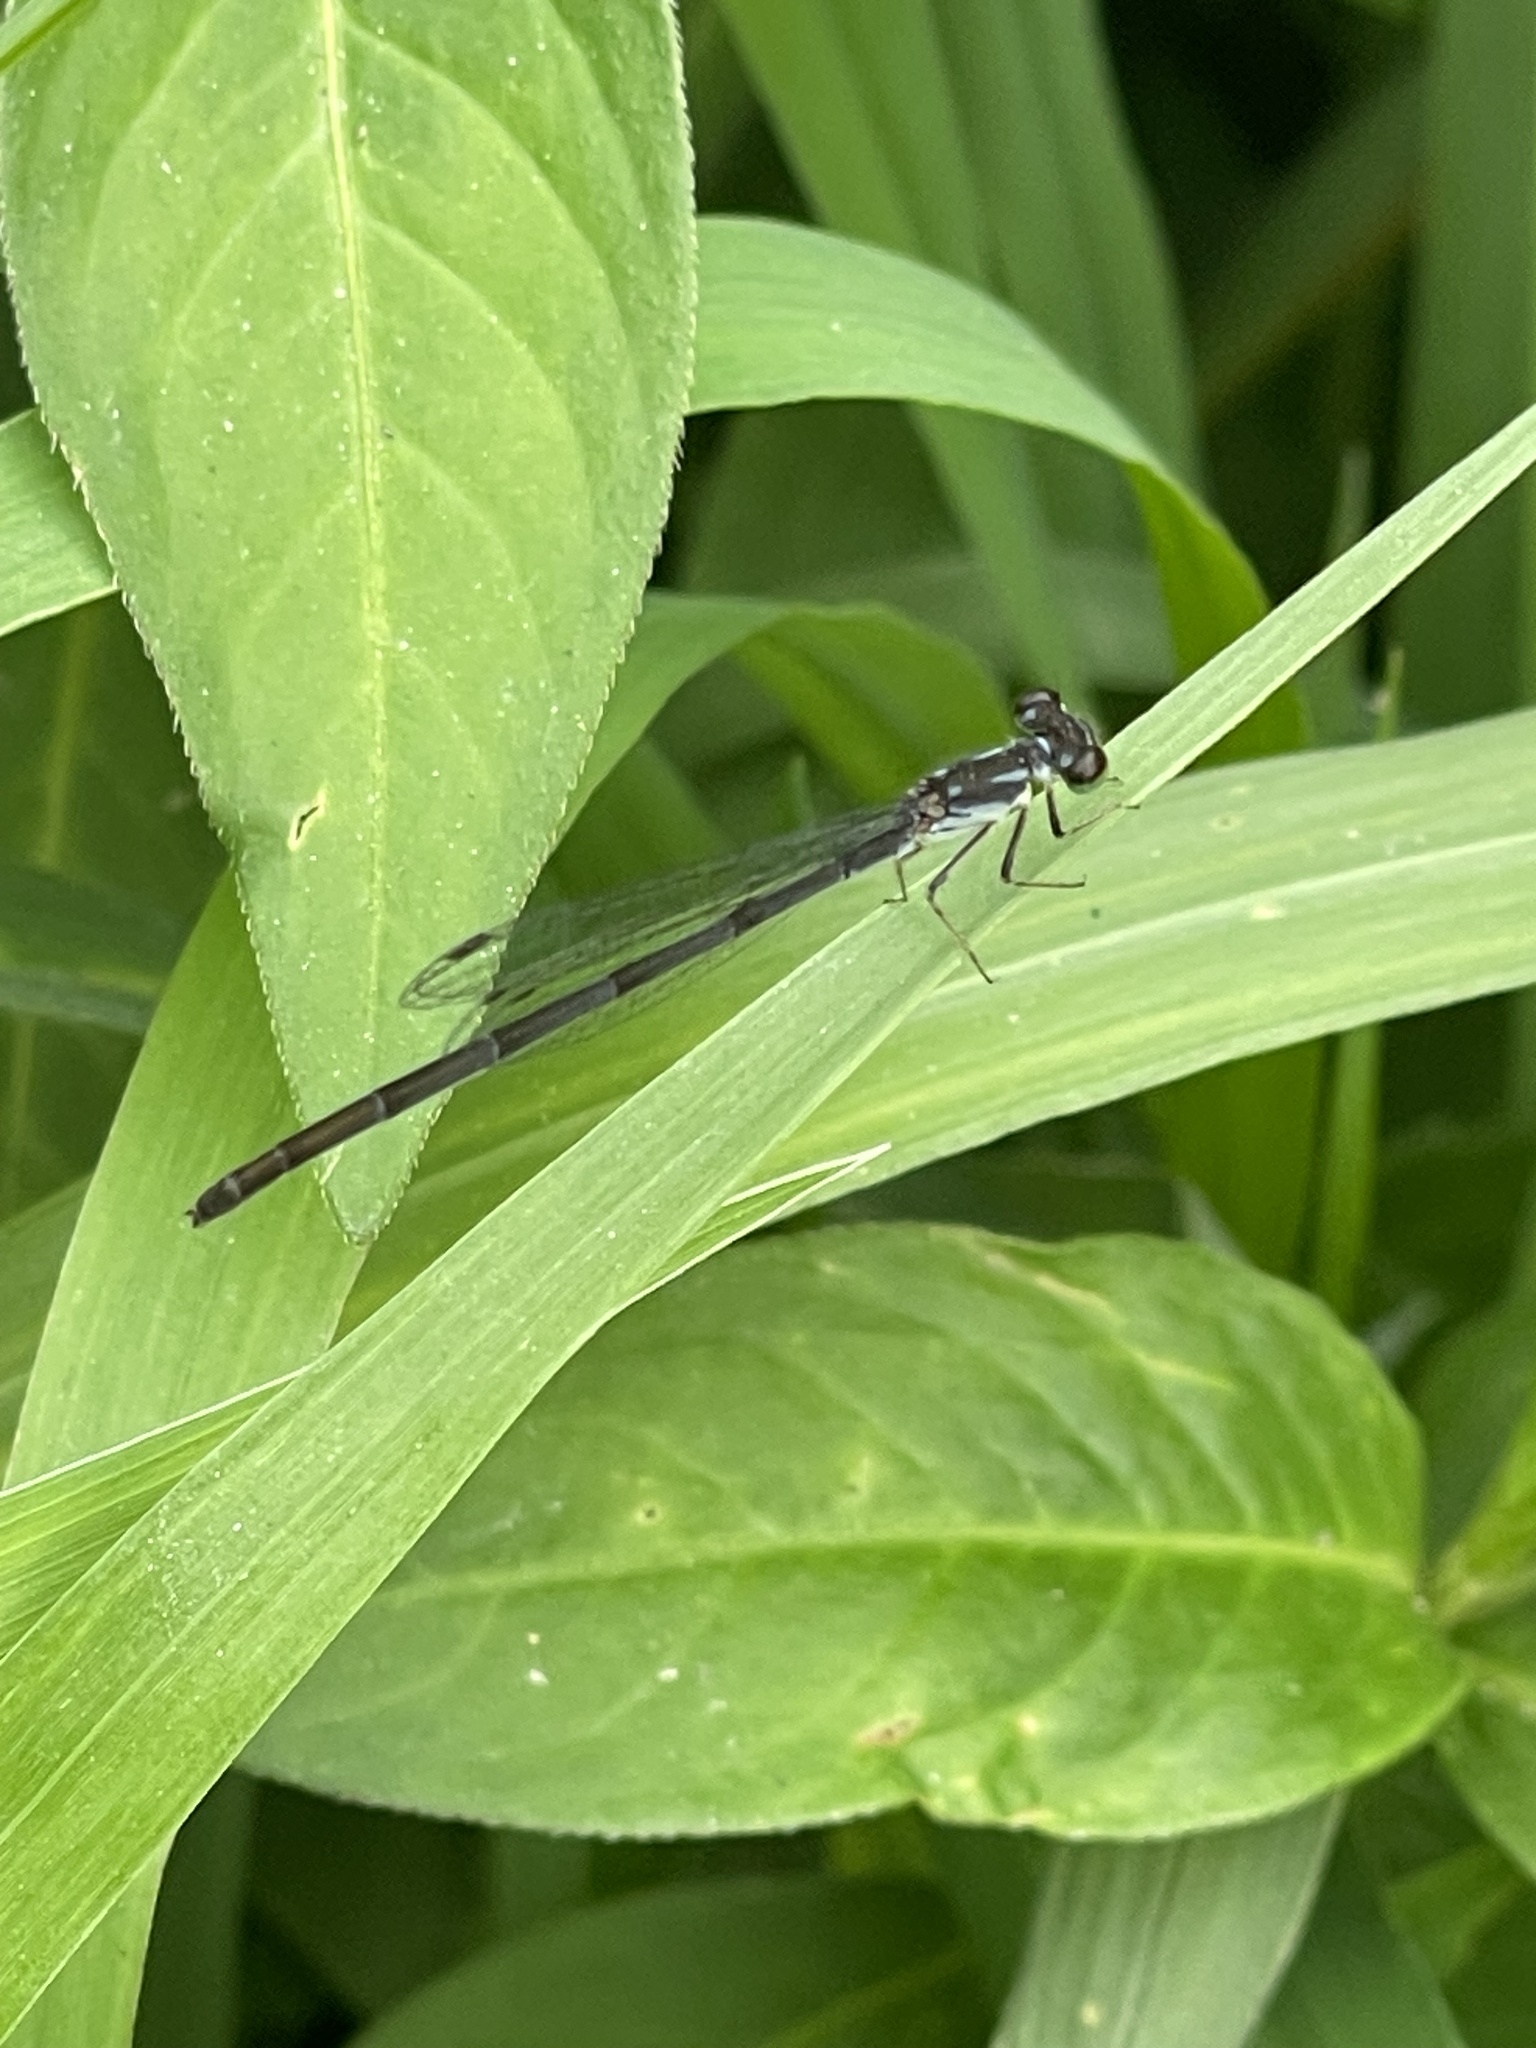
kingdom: Animalia
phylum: Arthropoda
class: Insecta
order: Odonata
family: Coenagrionidae
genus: Ischnura
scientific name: Ischnura posita
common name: Fragile forktail
